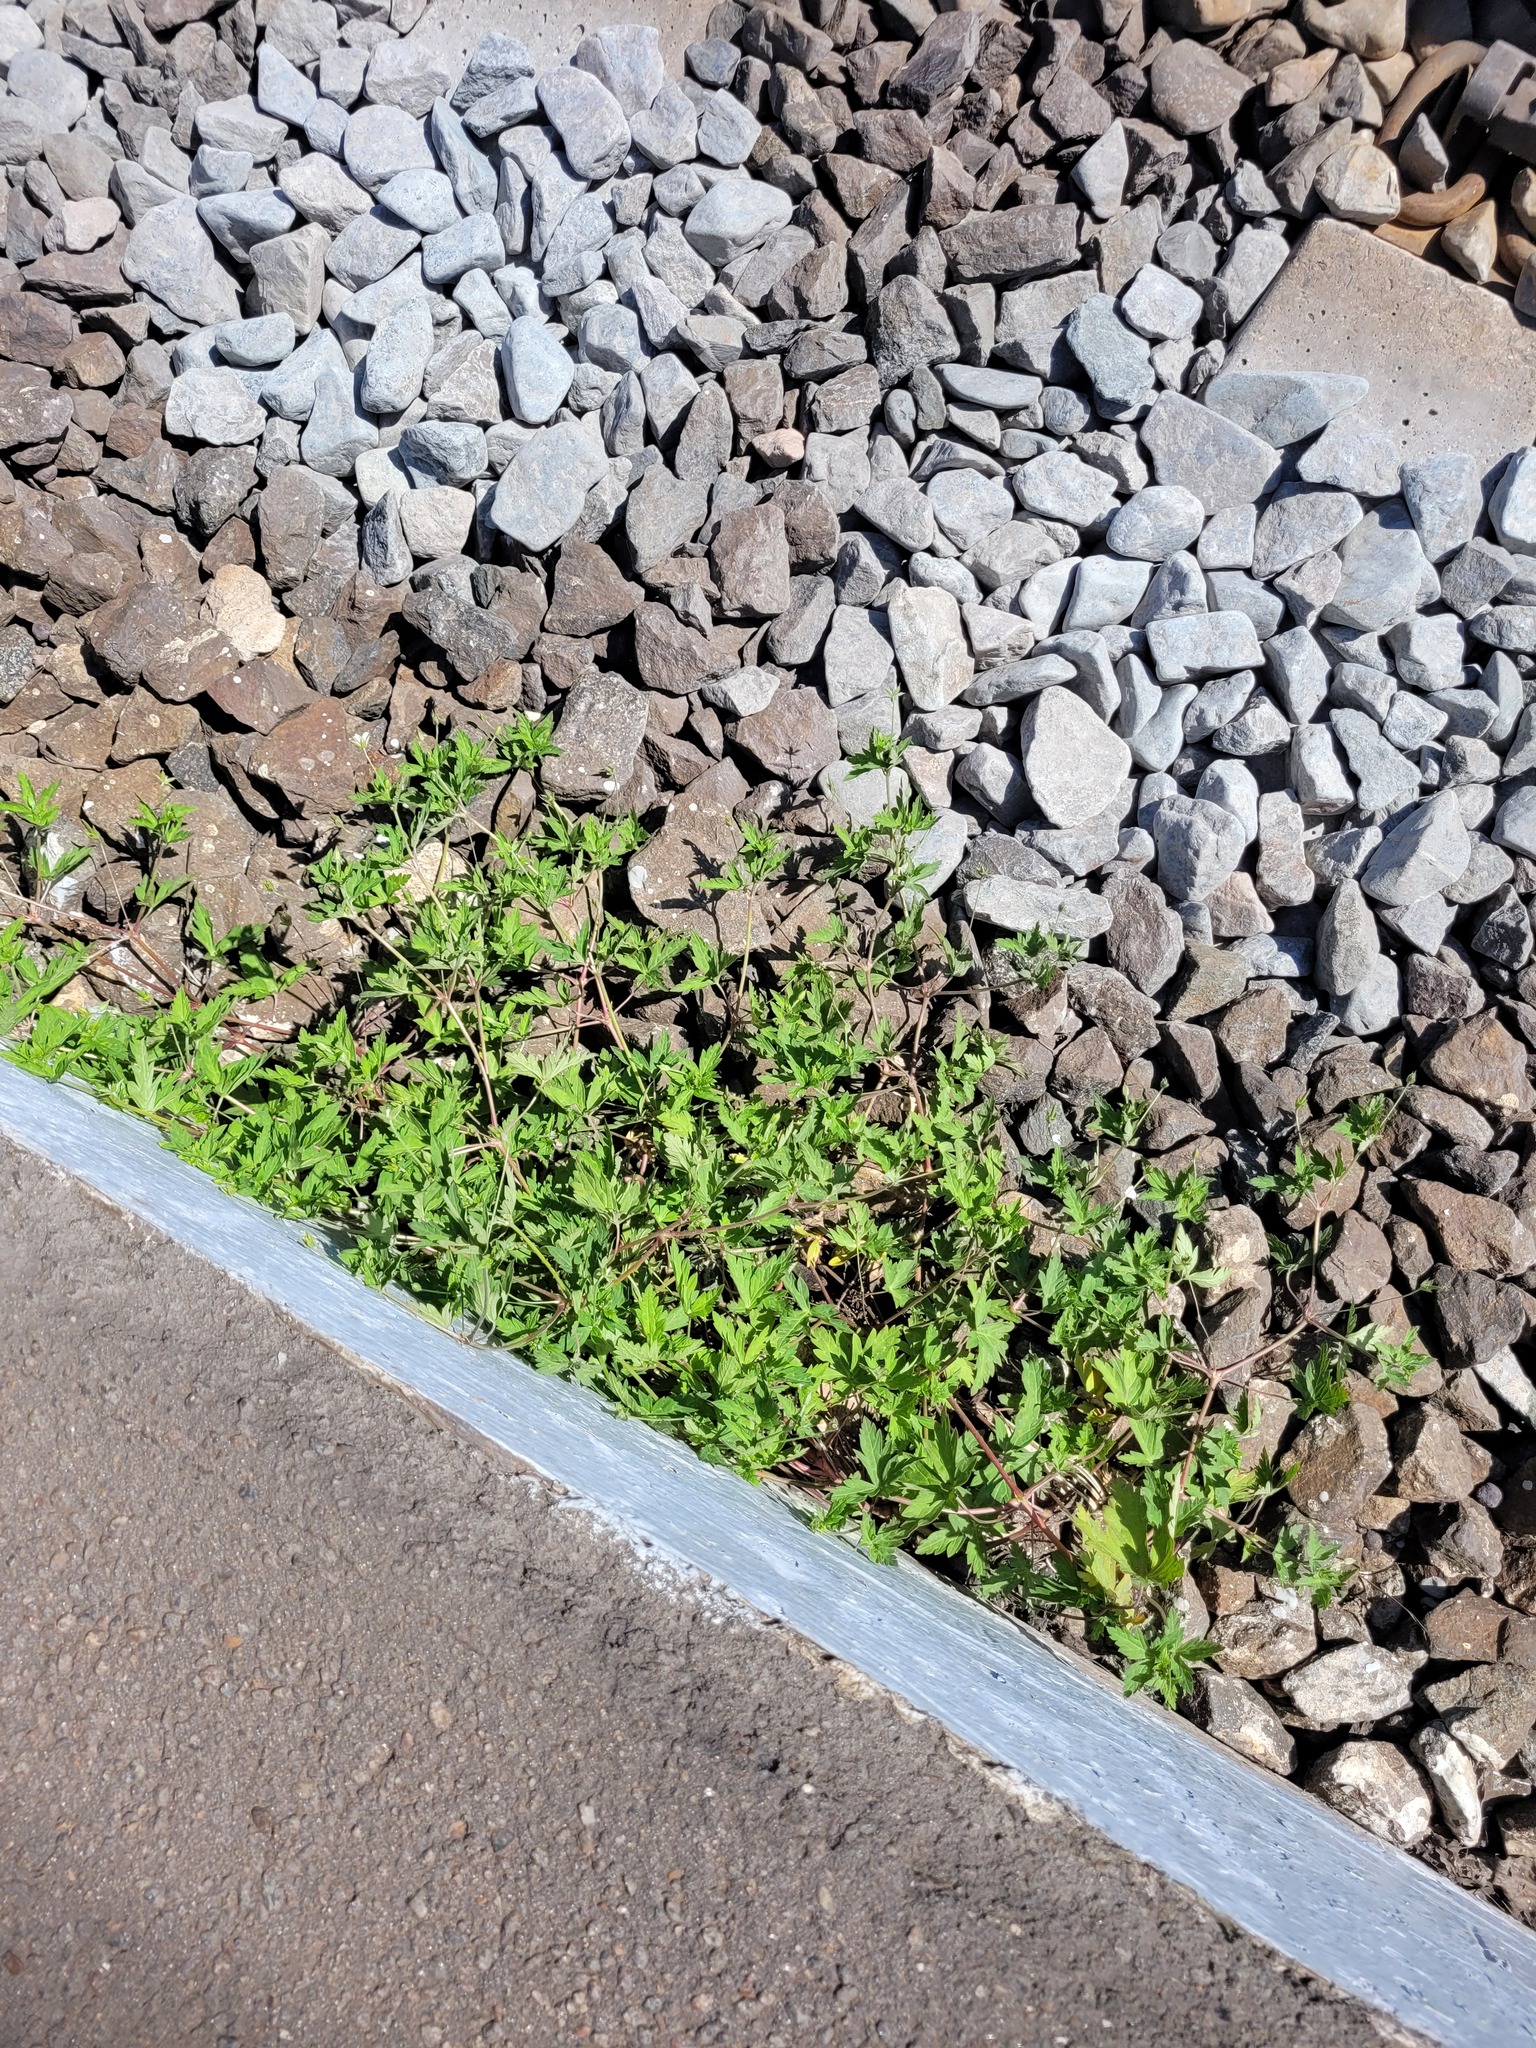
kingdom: Plantae
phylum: Tracheophyta
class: Magnoliopsida
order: Geraniales
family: Geraniaceae
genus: Geranium
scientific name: Geranium sibiricum
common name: Siberian crane's-bill
